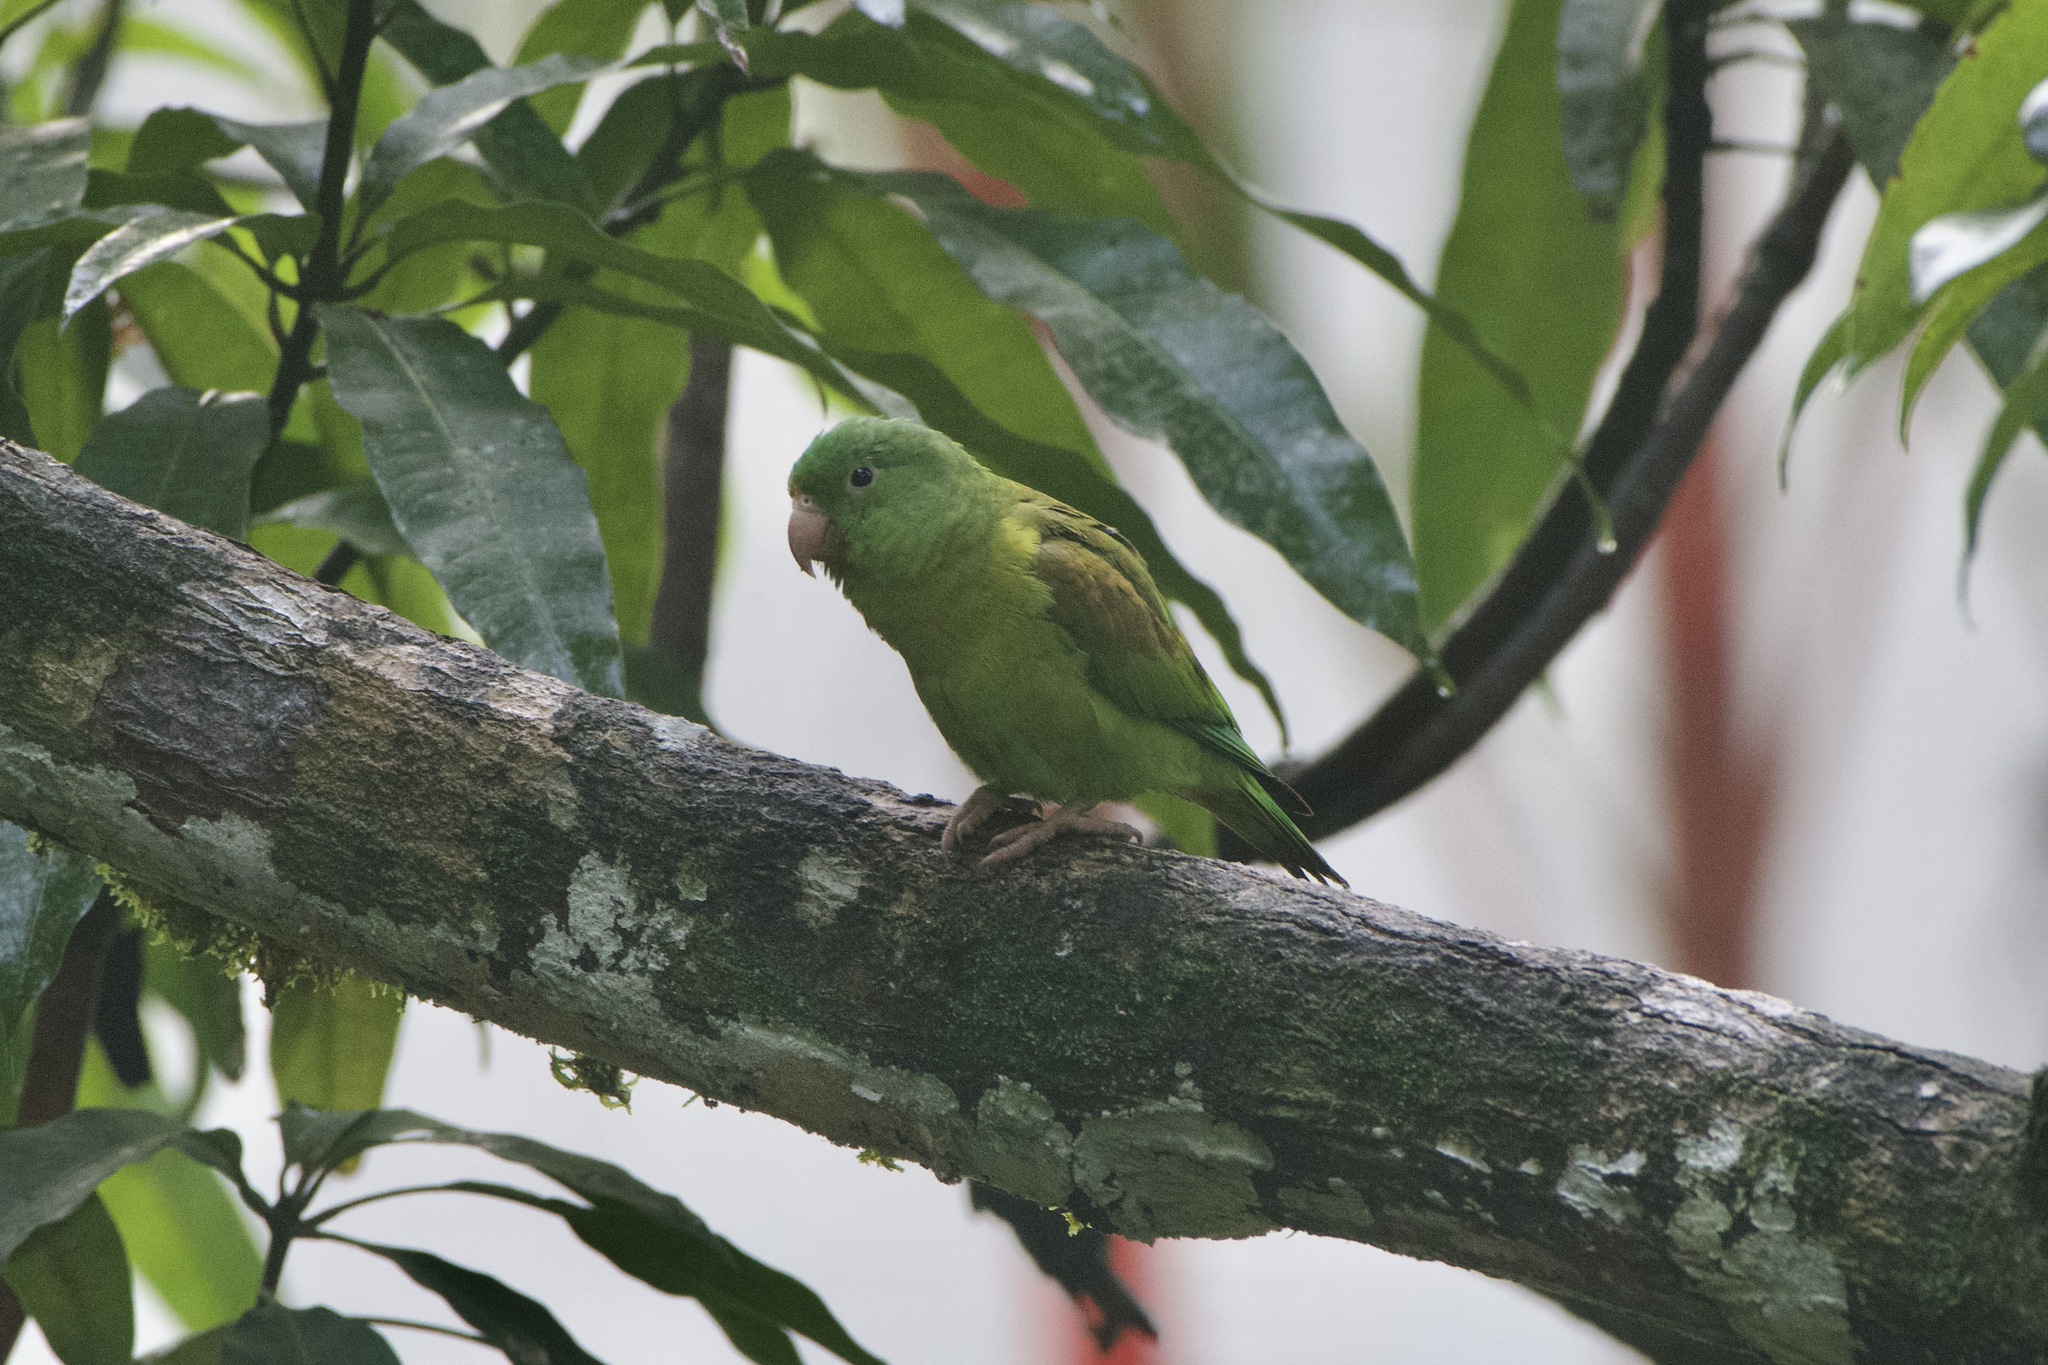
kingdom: Animalia
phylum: Chordata
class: Aves
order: Psittaciformes
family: Psittacidae
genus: Brotogeris
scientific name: Brotogeris jugularis
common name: Orange-chinned parakeet
